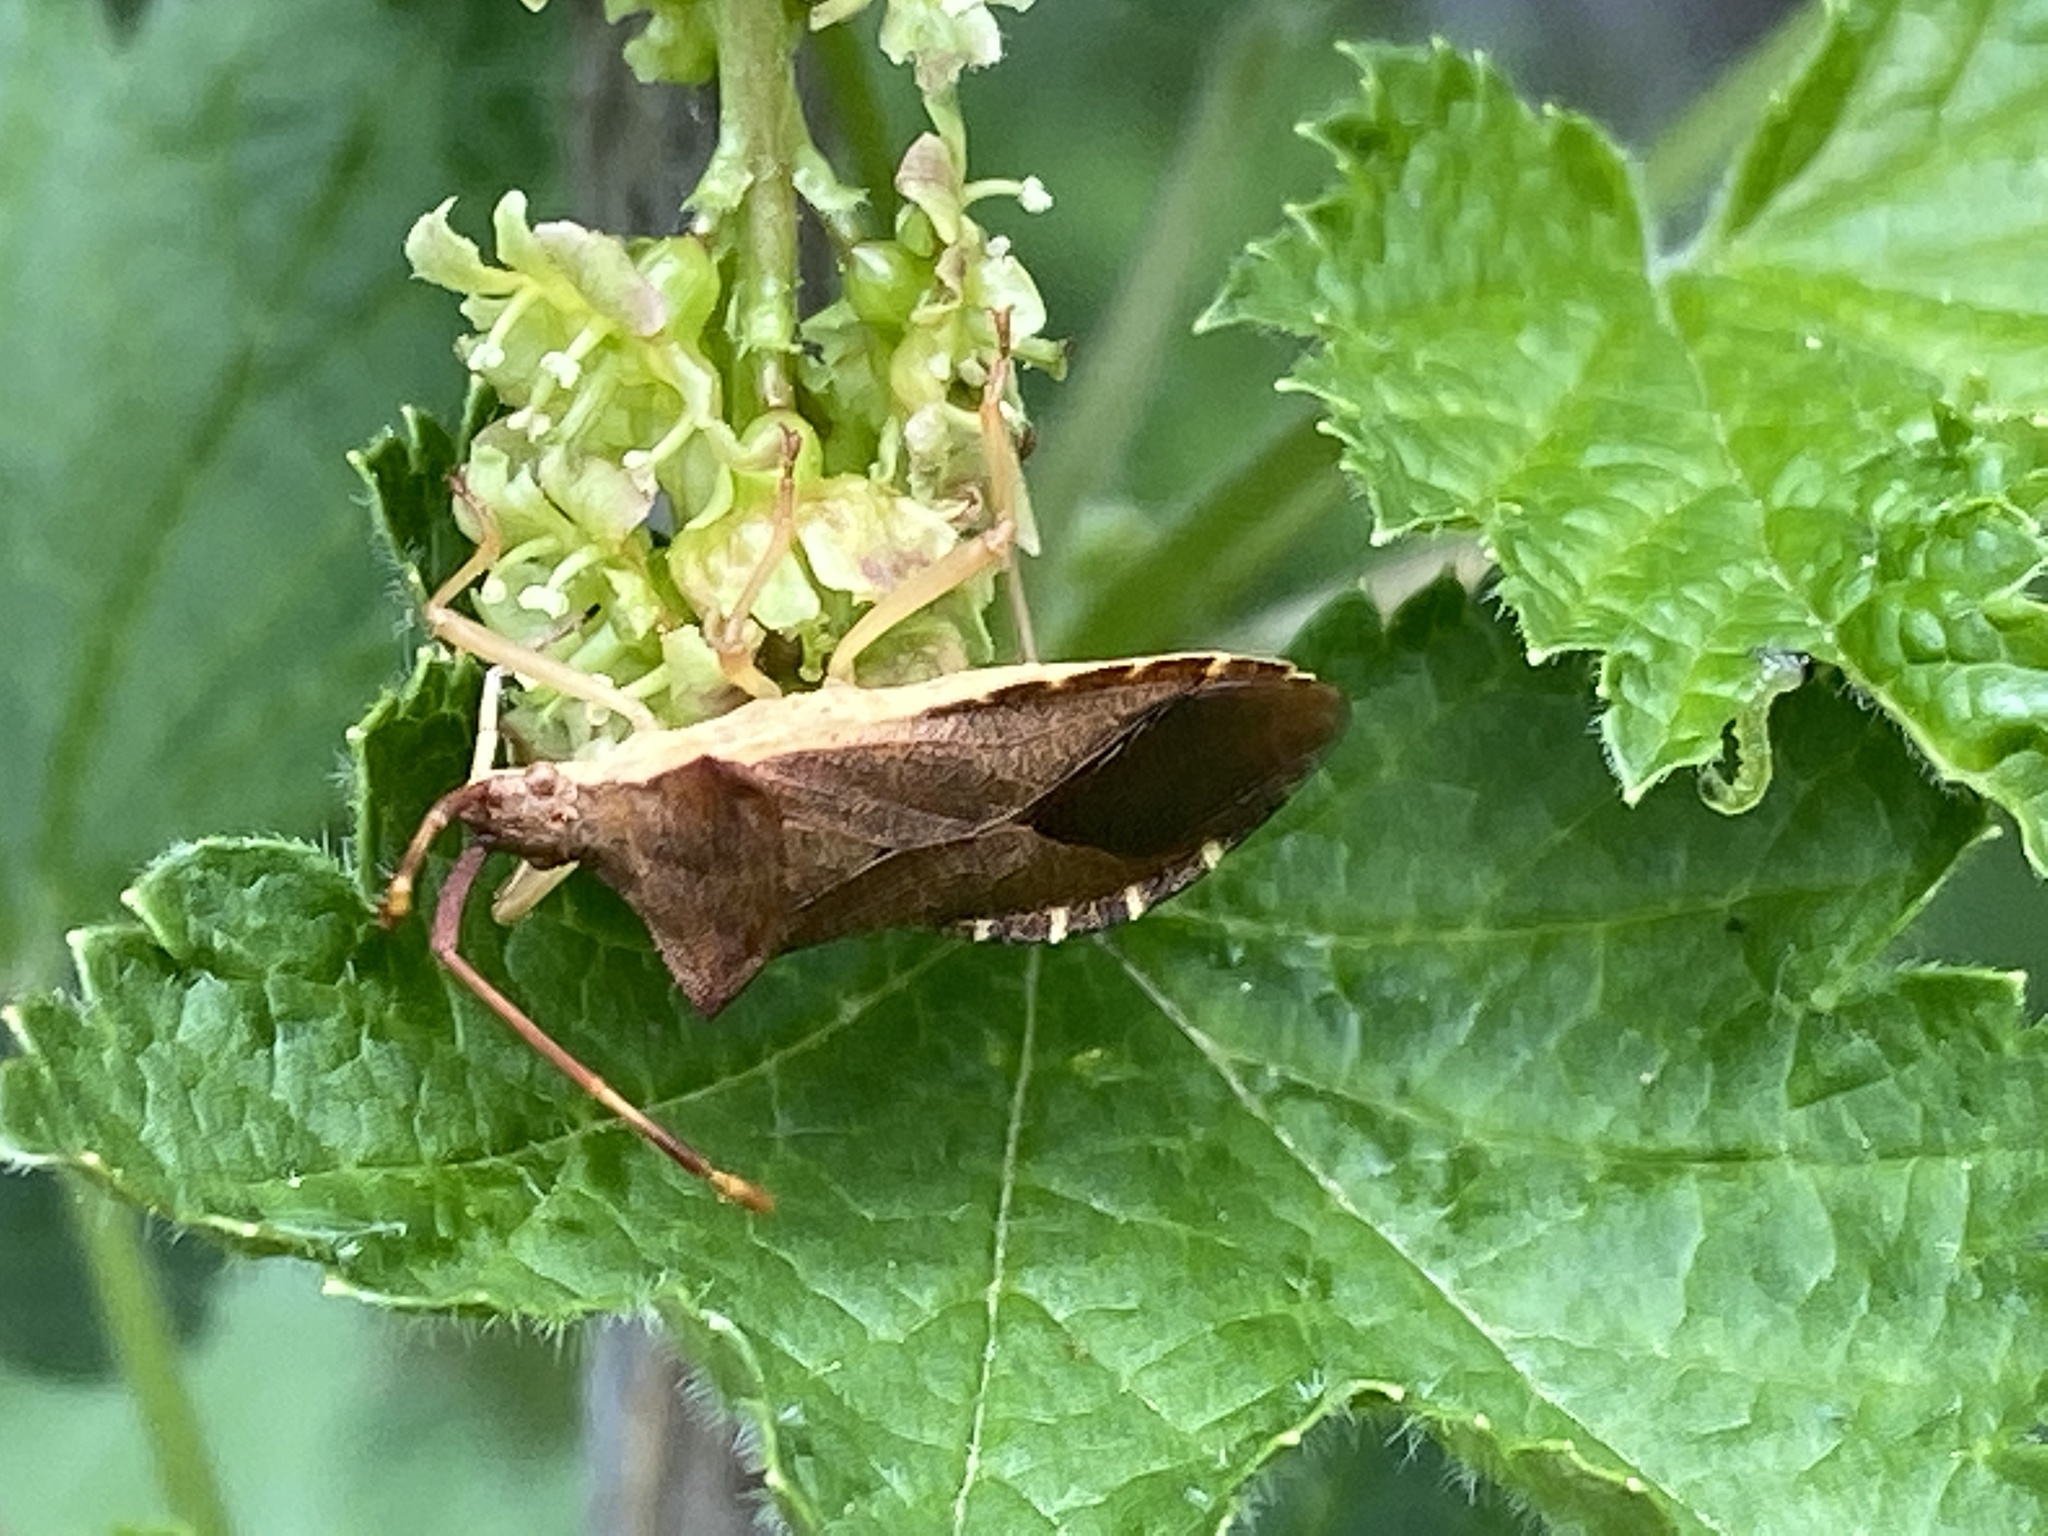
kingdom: Animalia
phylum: Arthropoda
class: Insecta
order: Hemiptera
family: Coreidae
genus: Gonocerus
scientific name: Gonocerus acuteangulatus
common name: Box bug
